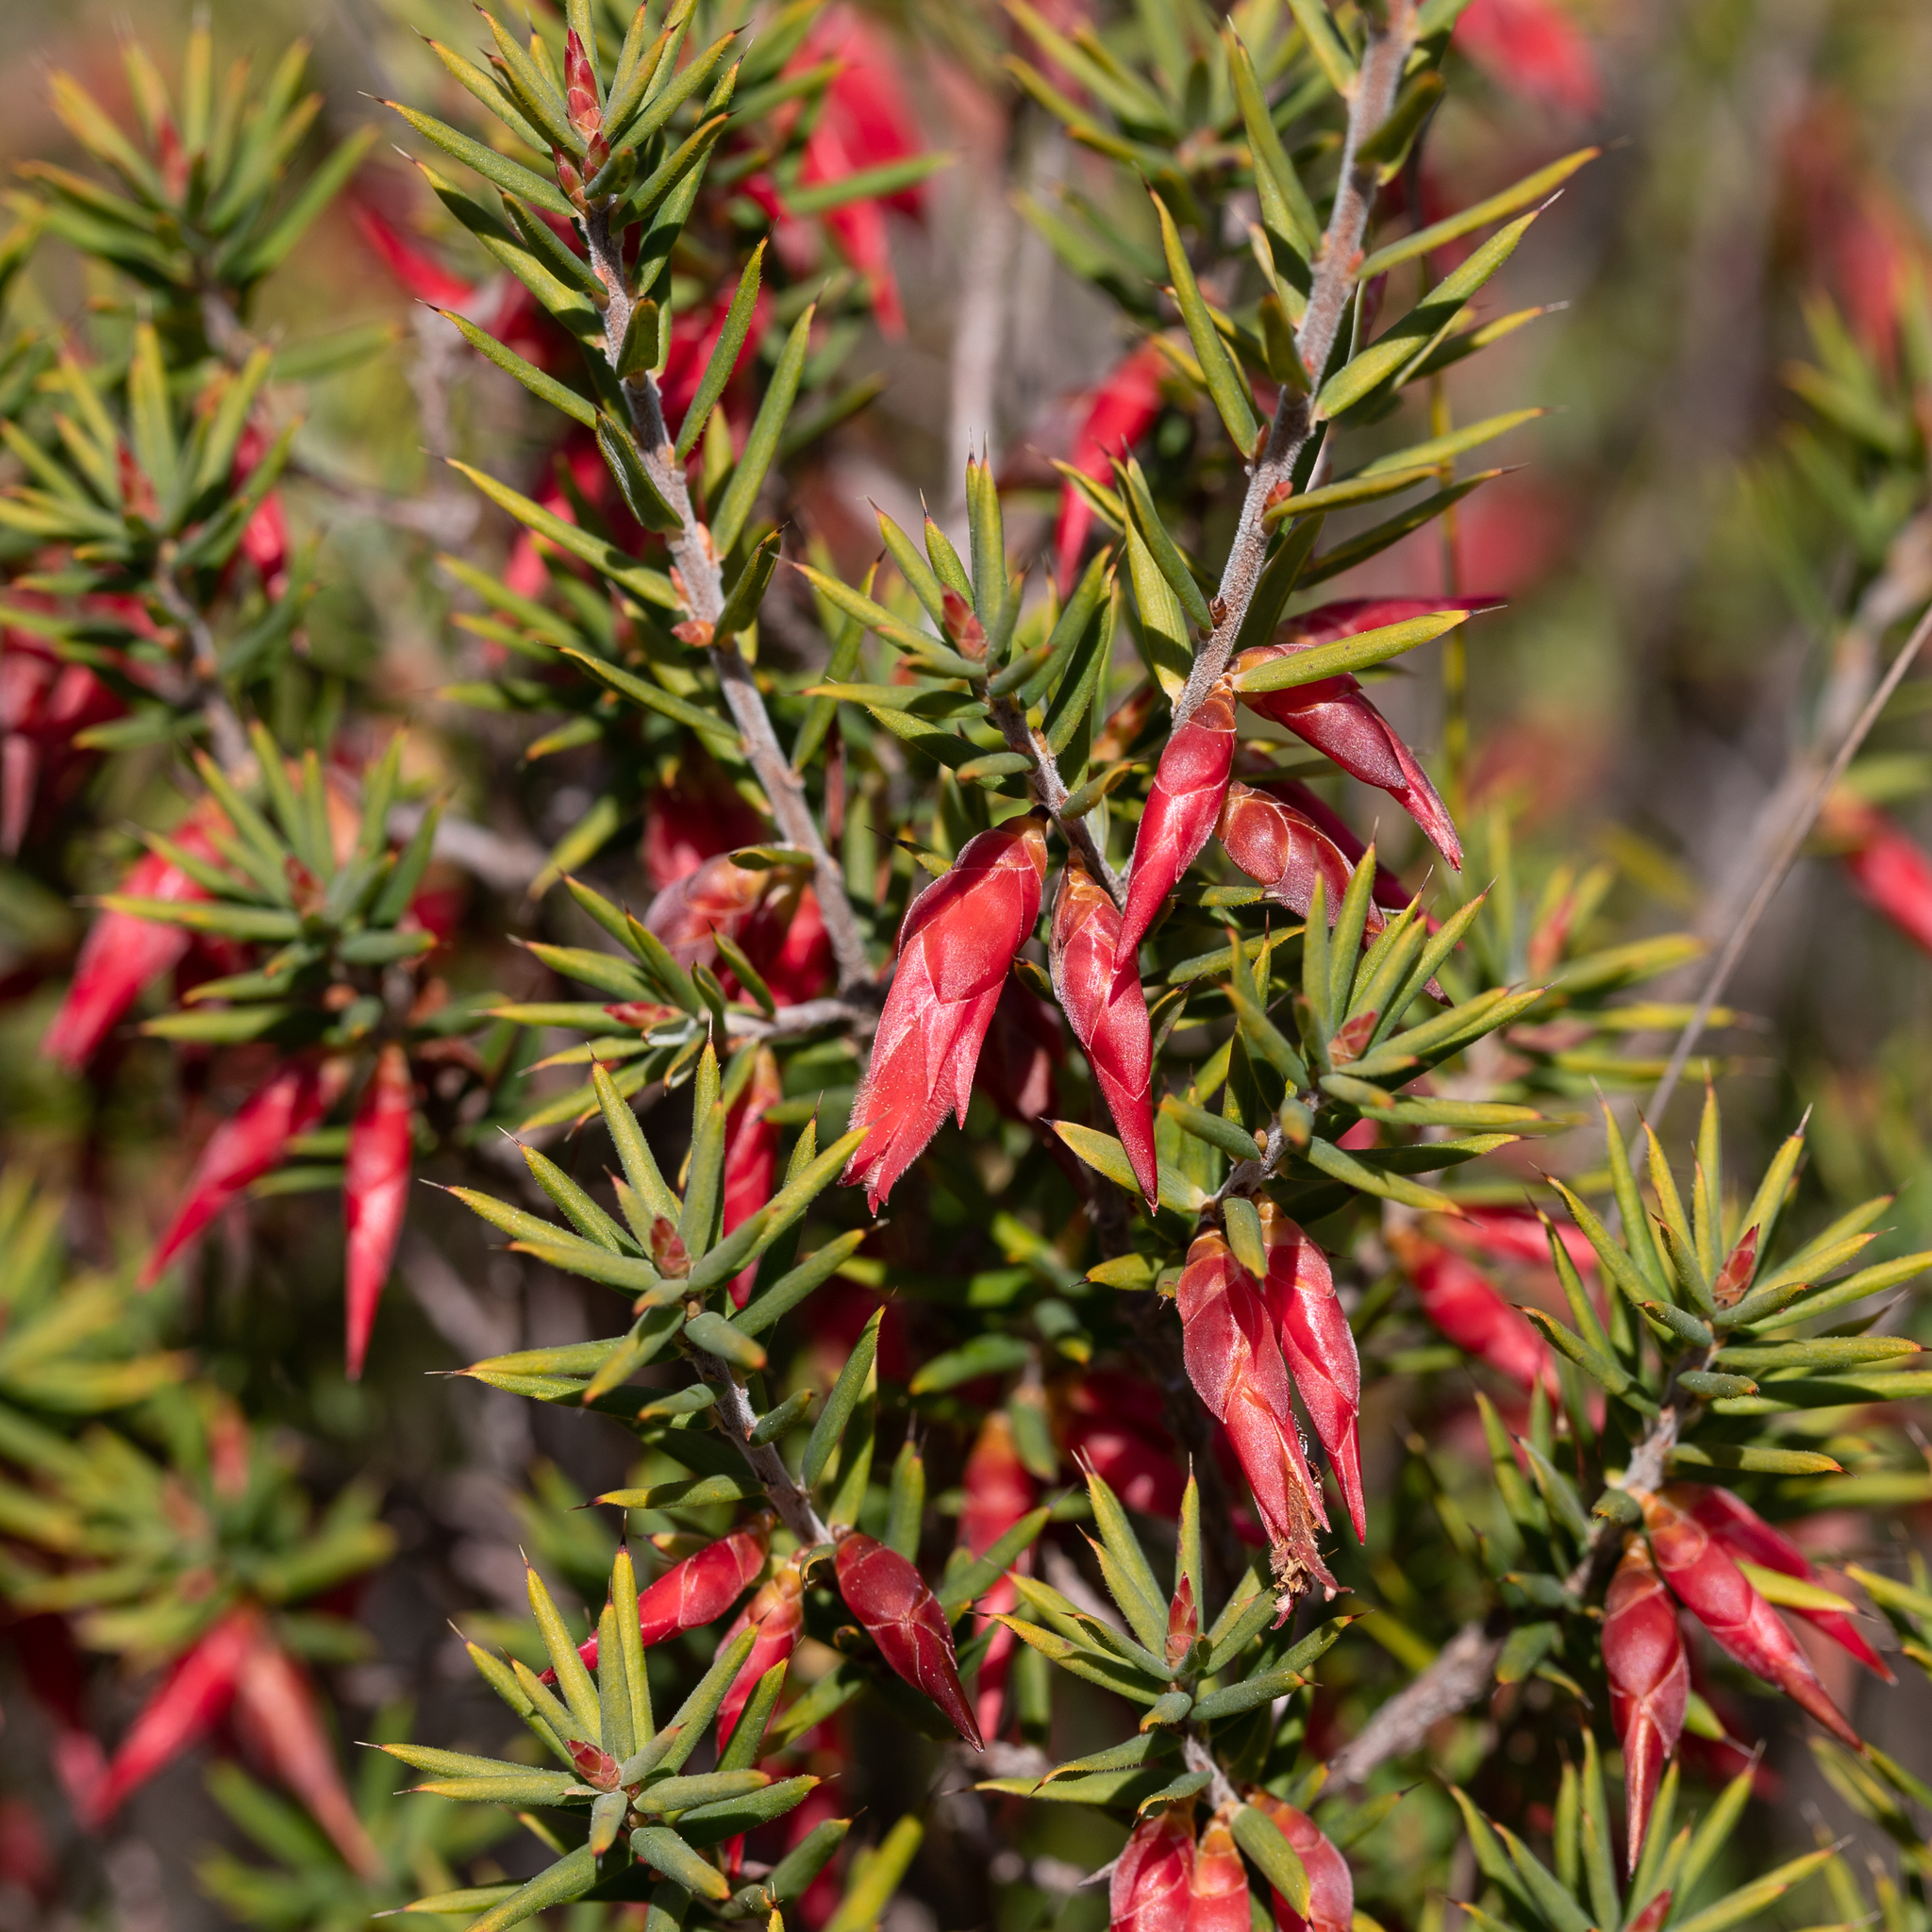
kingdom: Plantae
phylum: Tracheophyta
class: Magnoliopsida
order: Ericales
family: Ericaceae
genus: Stenanthera
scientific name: Stenanthera conostephioides
